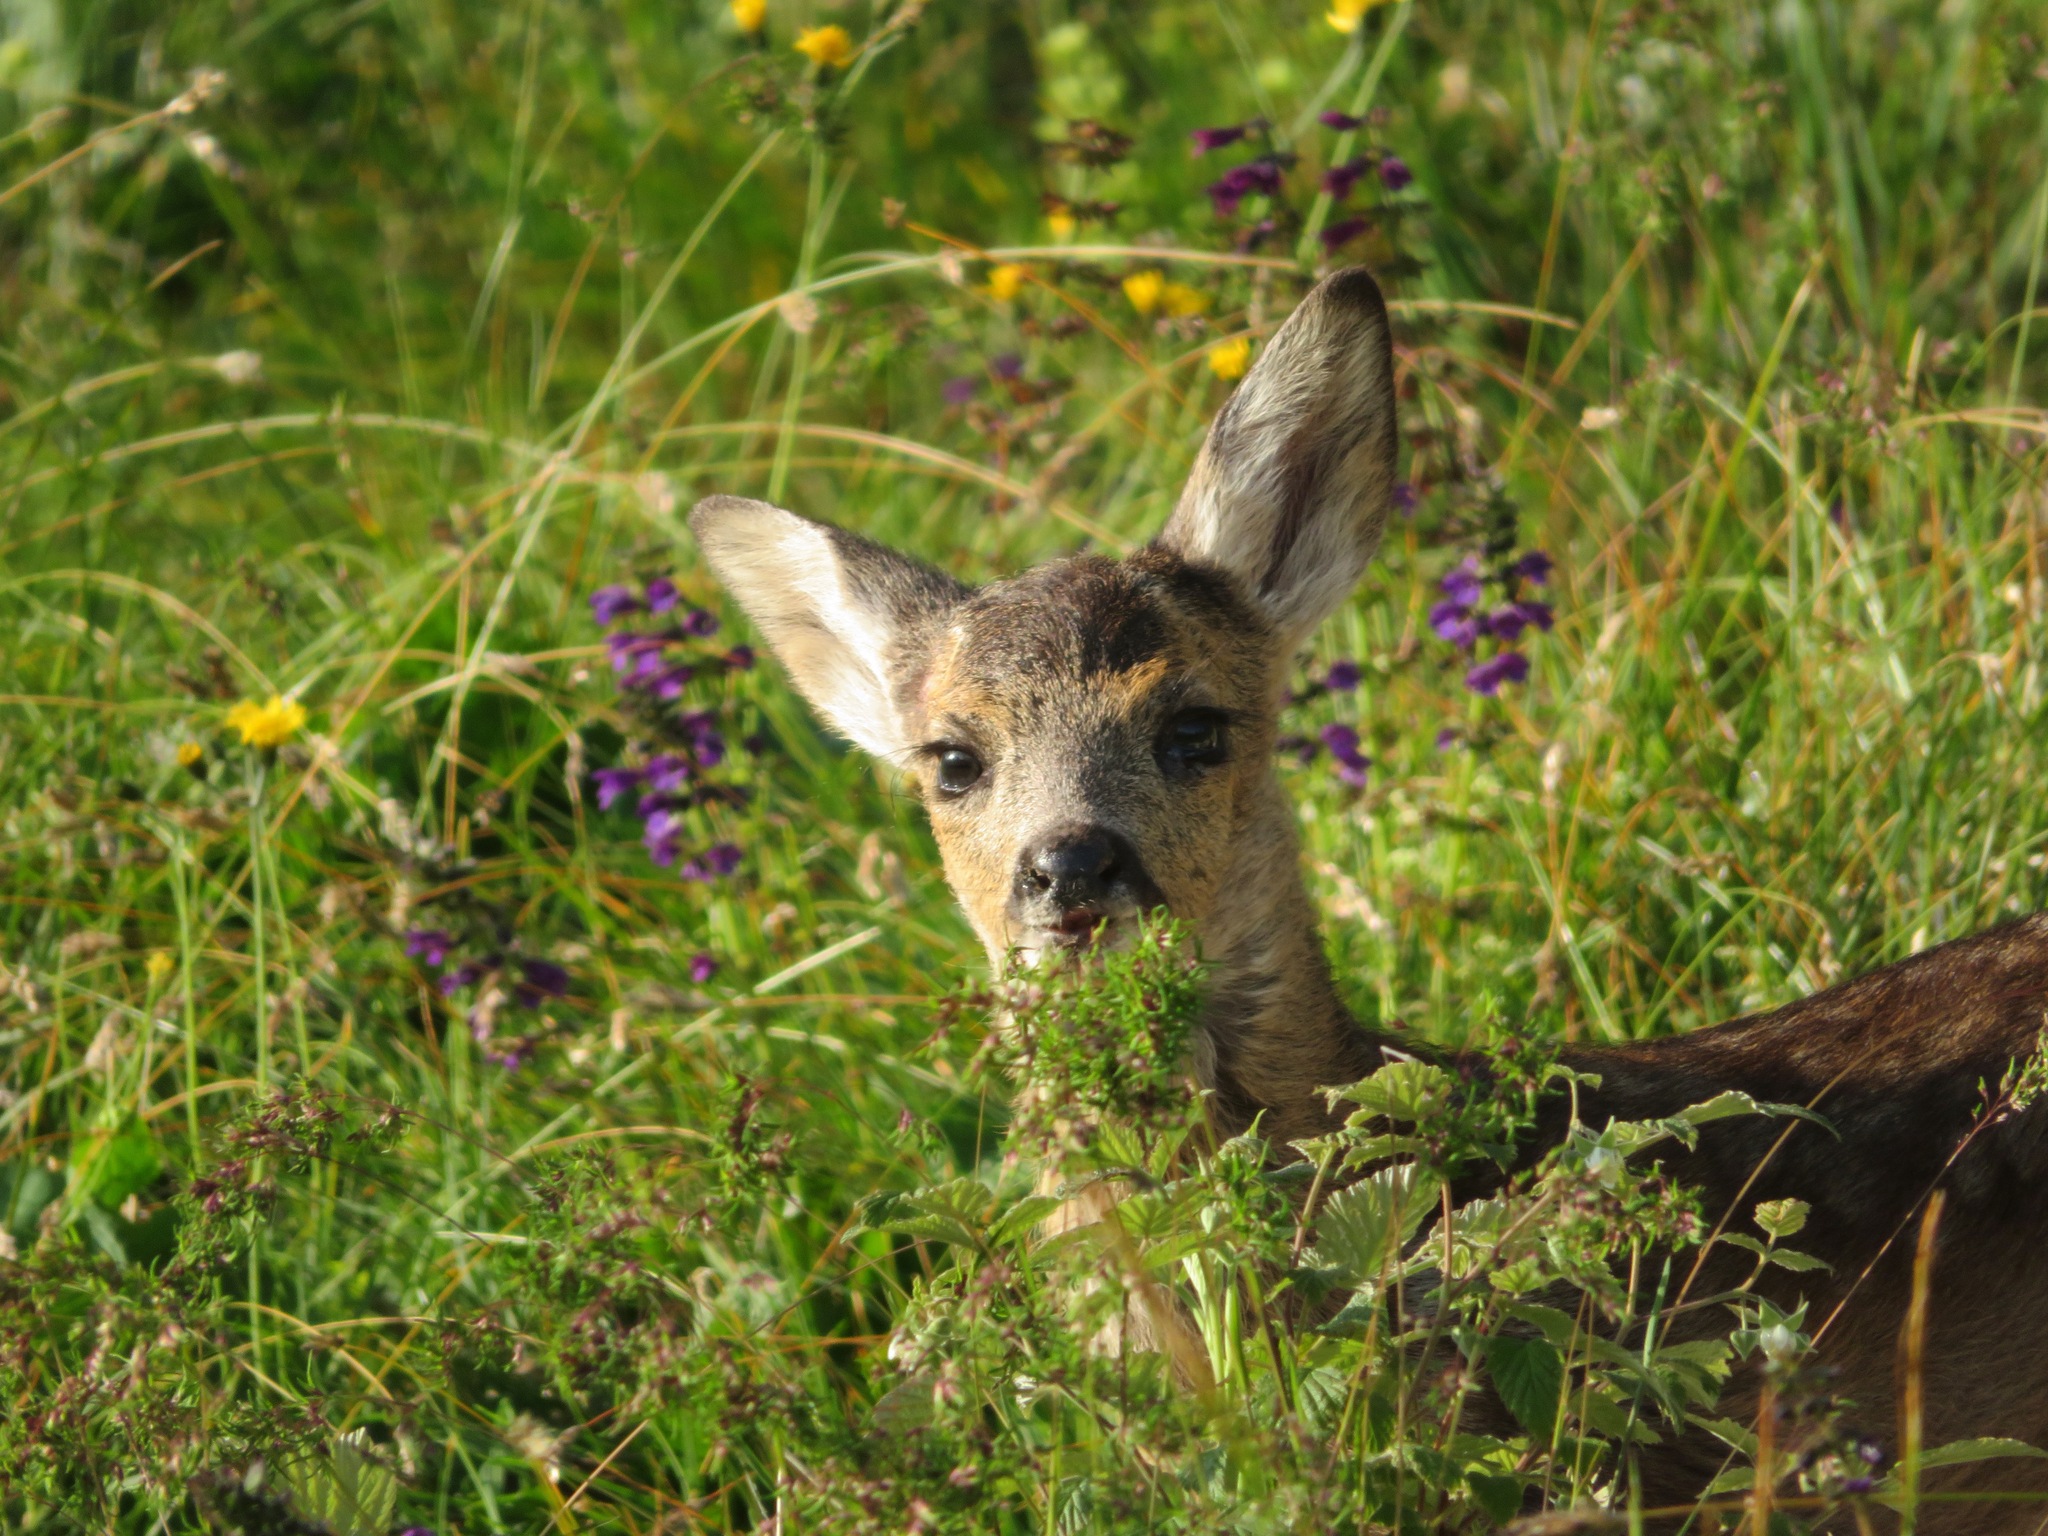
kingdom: Animalia
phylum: Chordata
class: Mammalia
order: Artiodactyla
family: Cervidae
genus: Capreolus
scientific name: Capreolus capreolus
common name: Western roe deer
